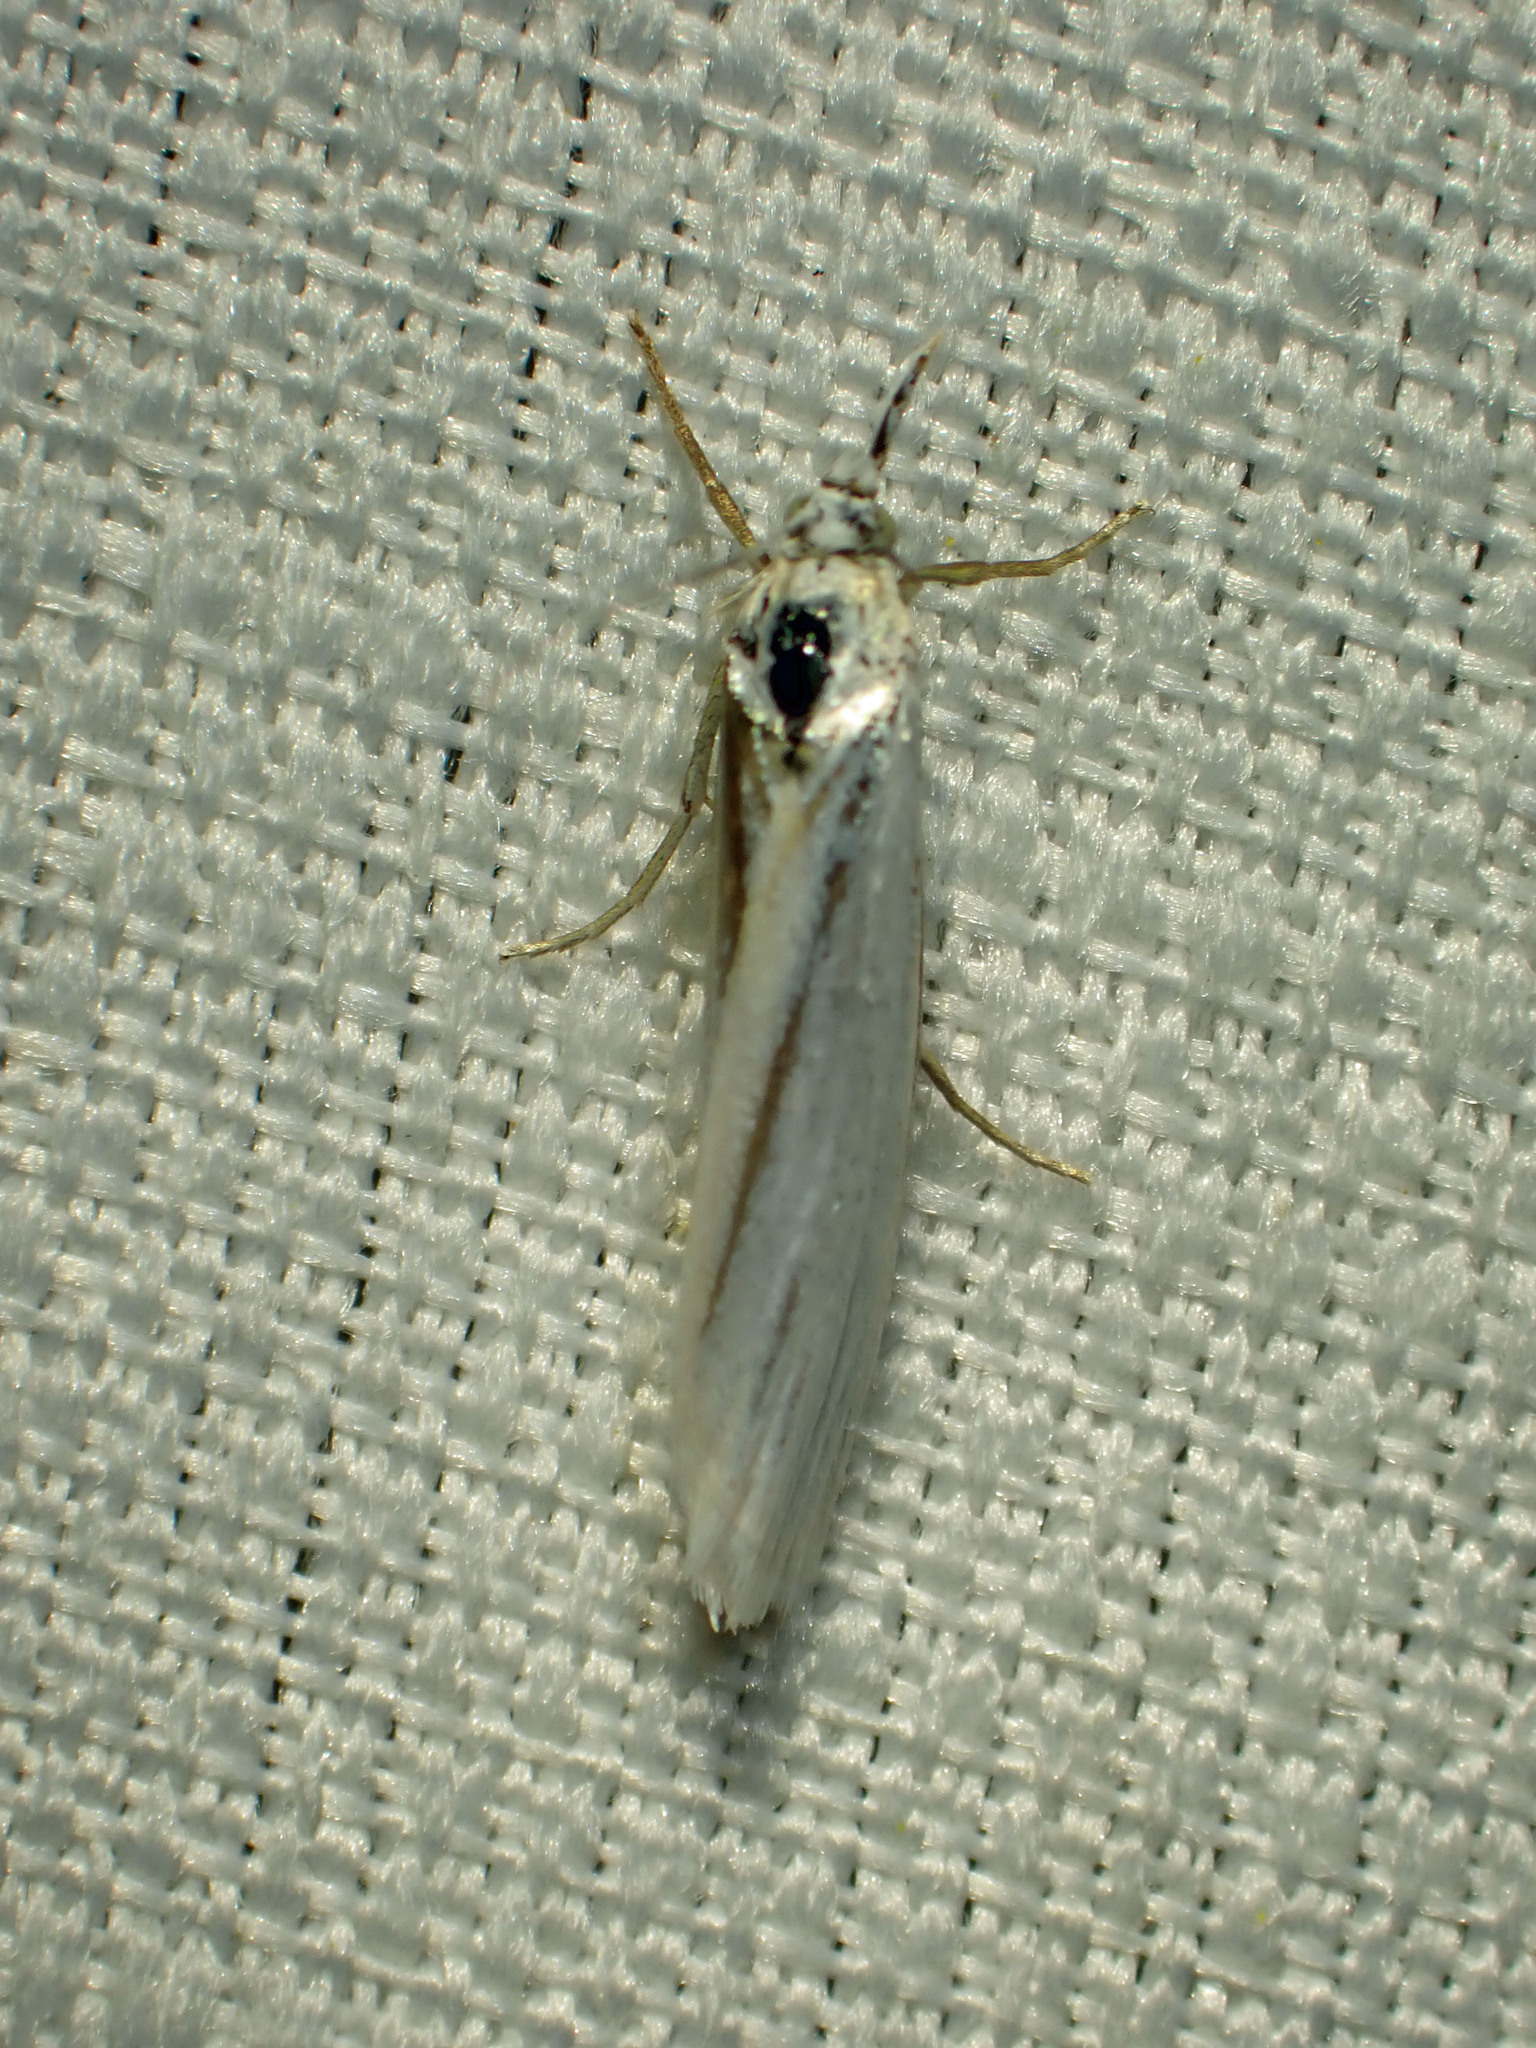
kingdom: Animalia
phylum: Arthropoda
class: Insecta
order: Lepidoptera
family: Crambidae
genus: Crambus
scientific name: Crambus perlellus
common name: Yellow satin veneer
